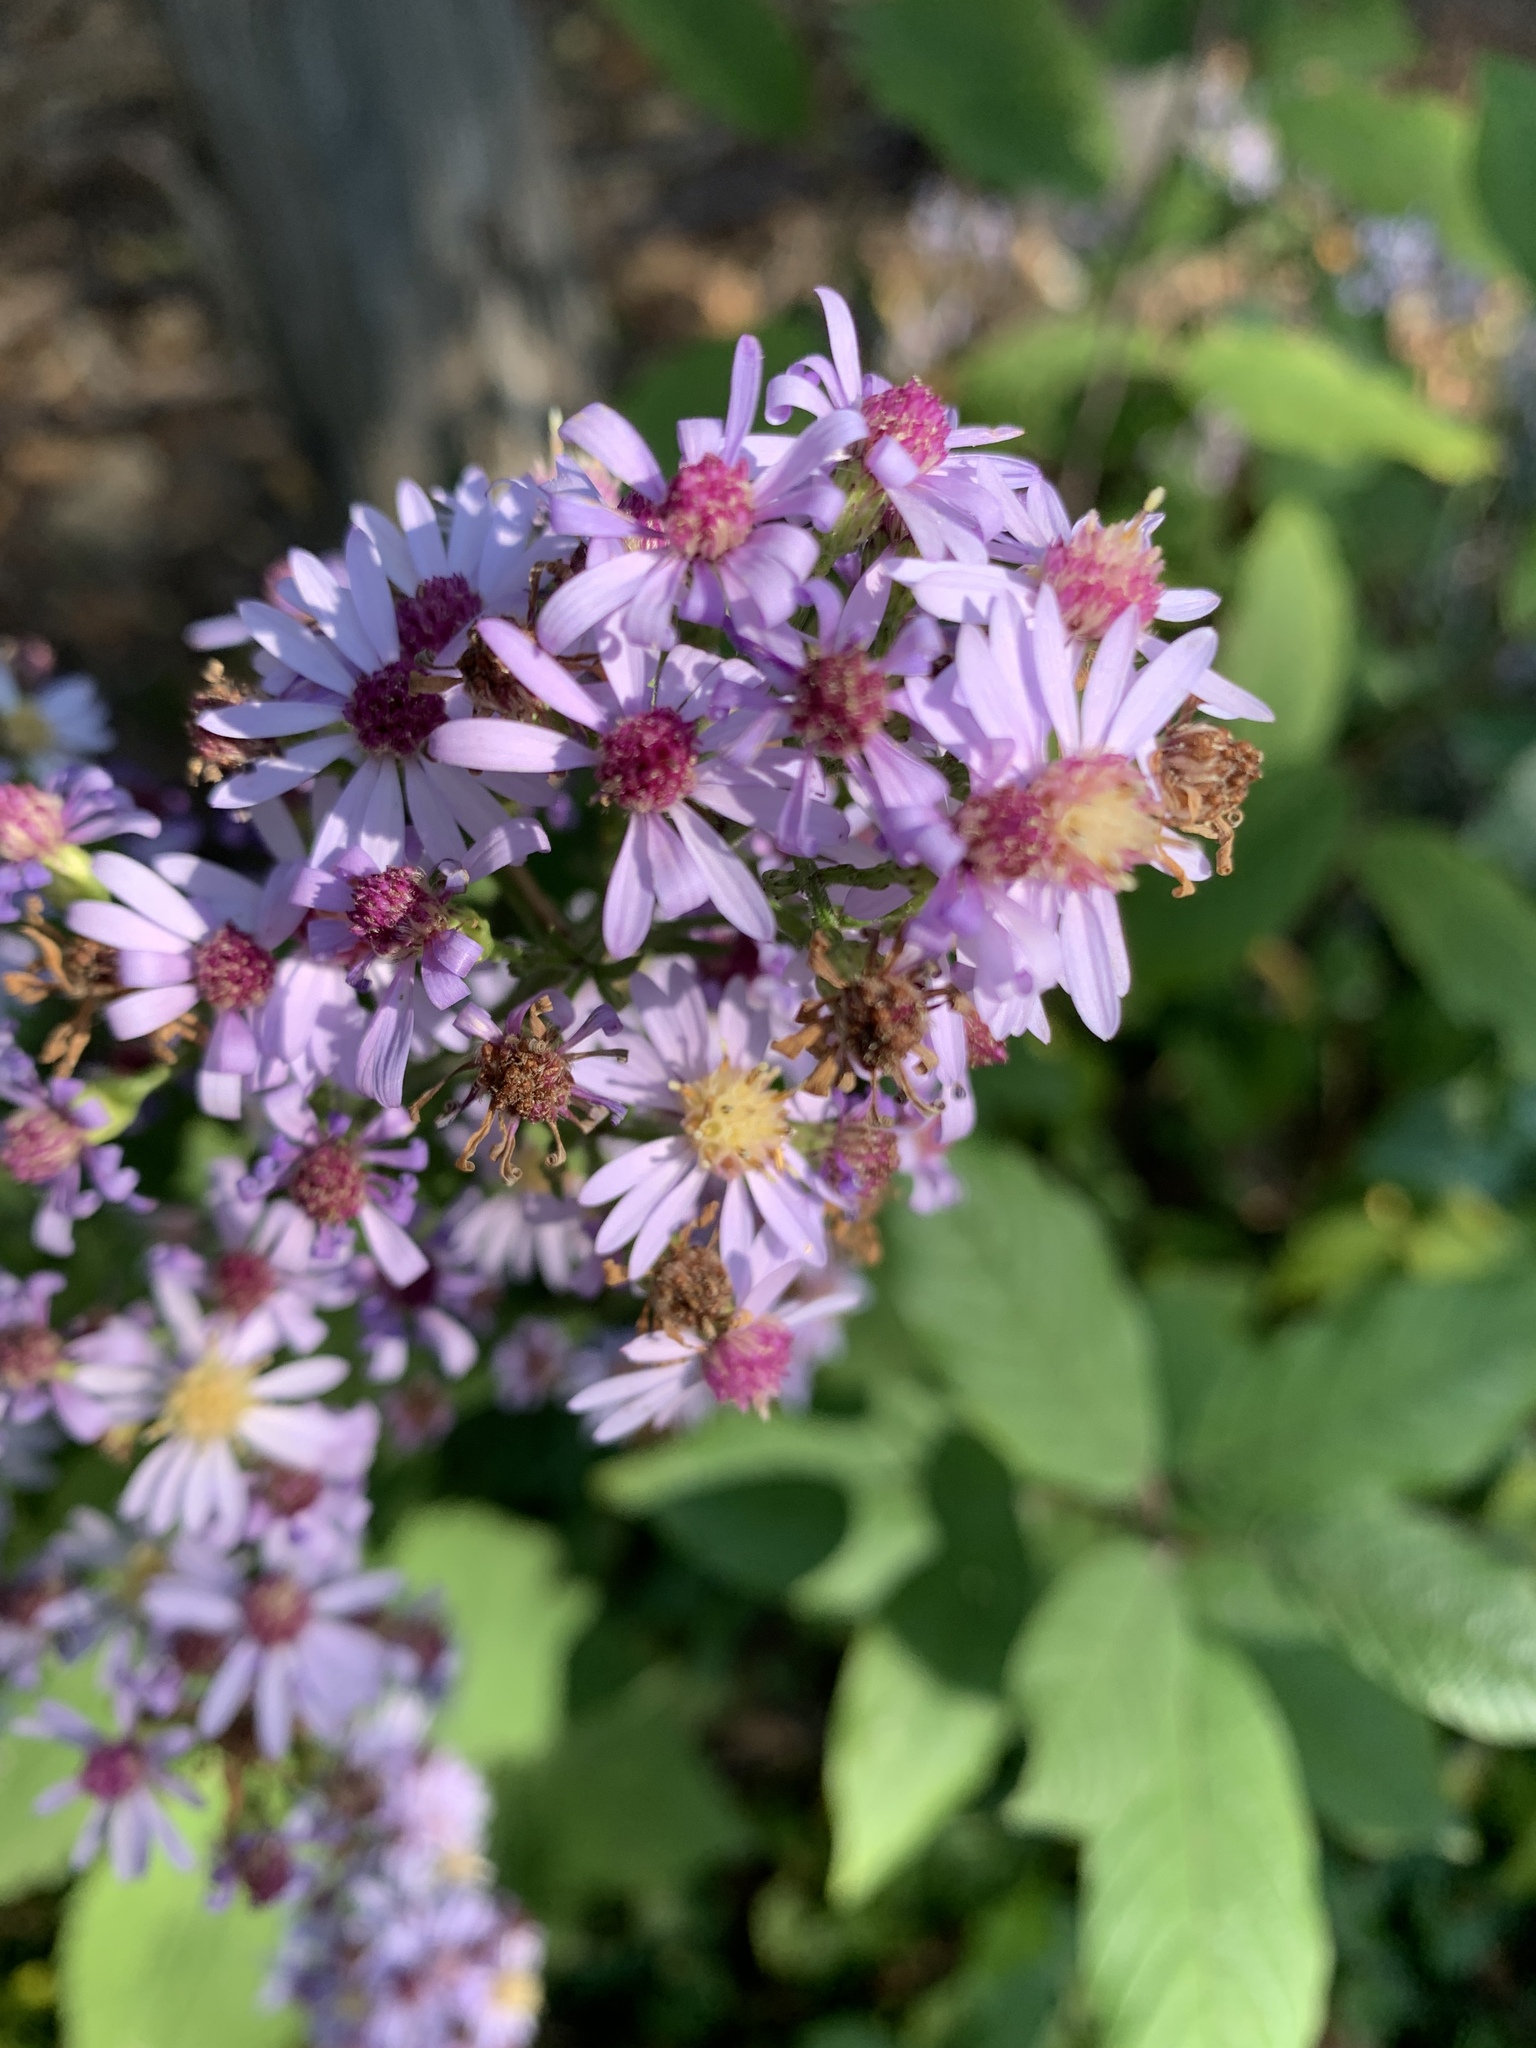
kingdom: Plantae
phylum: Tracheophyta
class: Magnoliopsida
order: Asterales
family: Asteraceae
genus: Symphyotrichum
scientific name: Symphyotrichum cordifolium
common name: Beeweed
